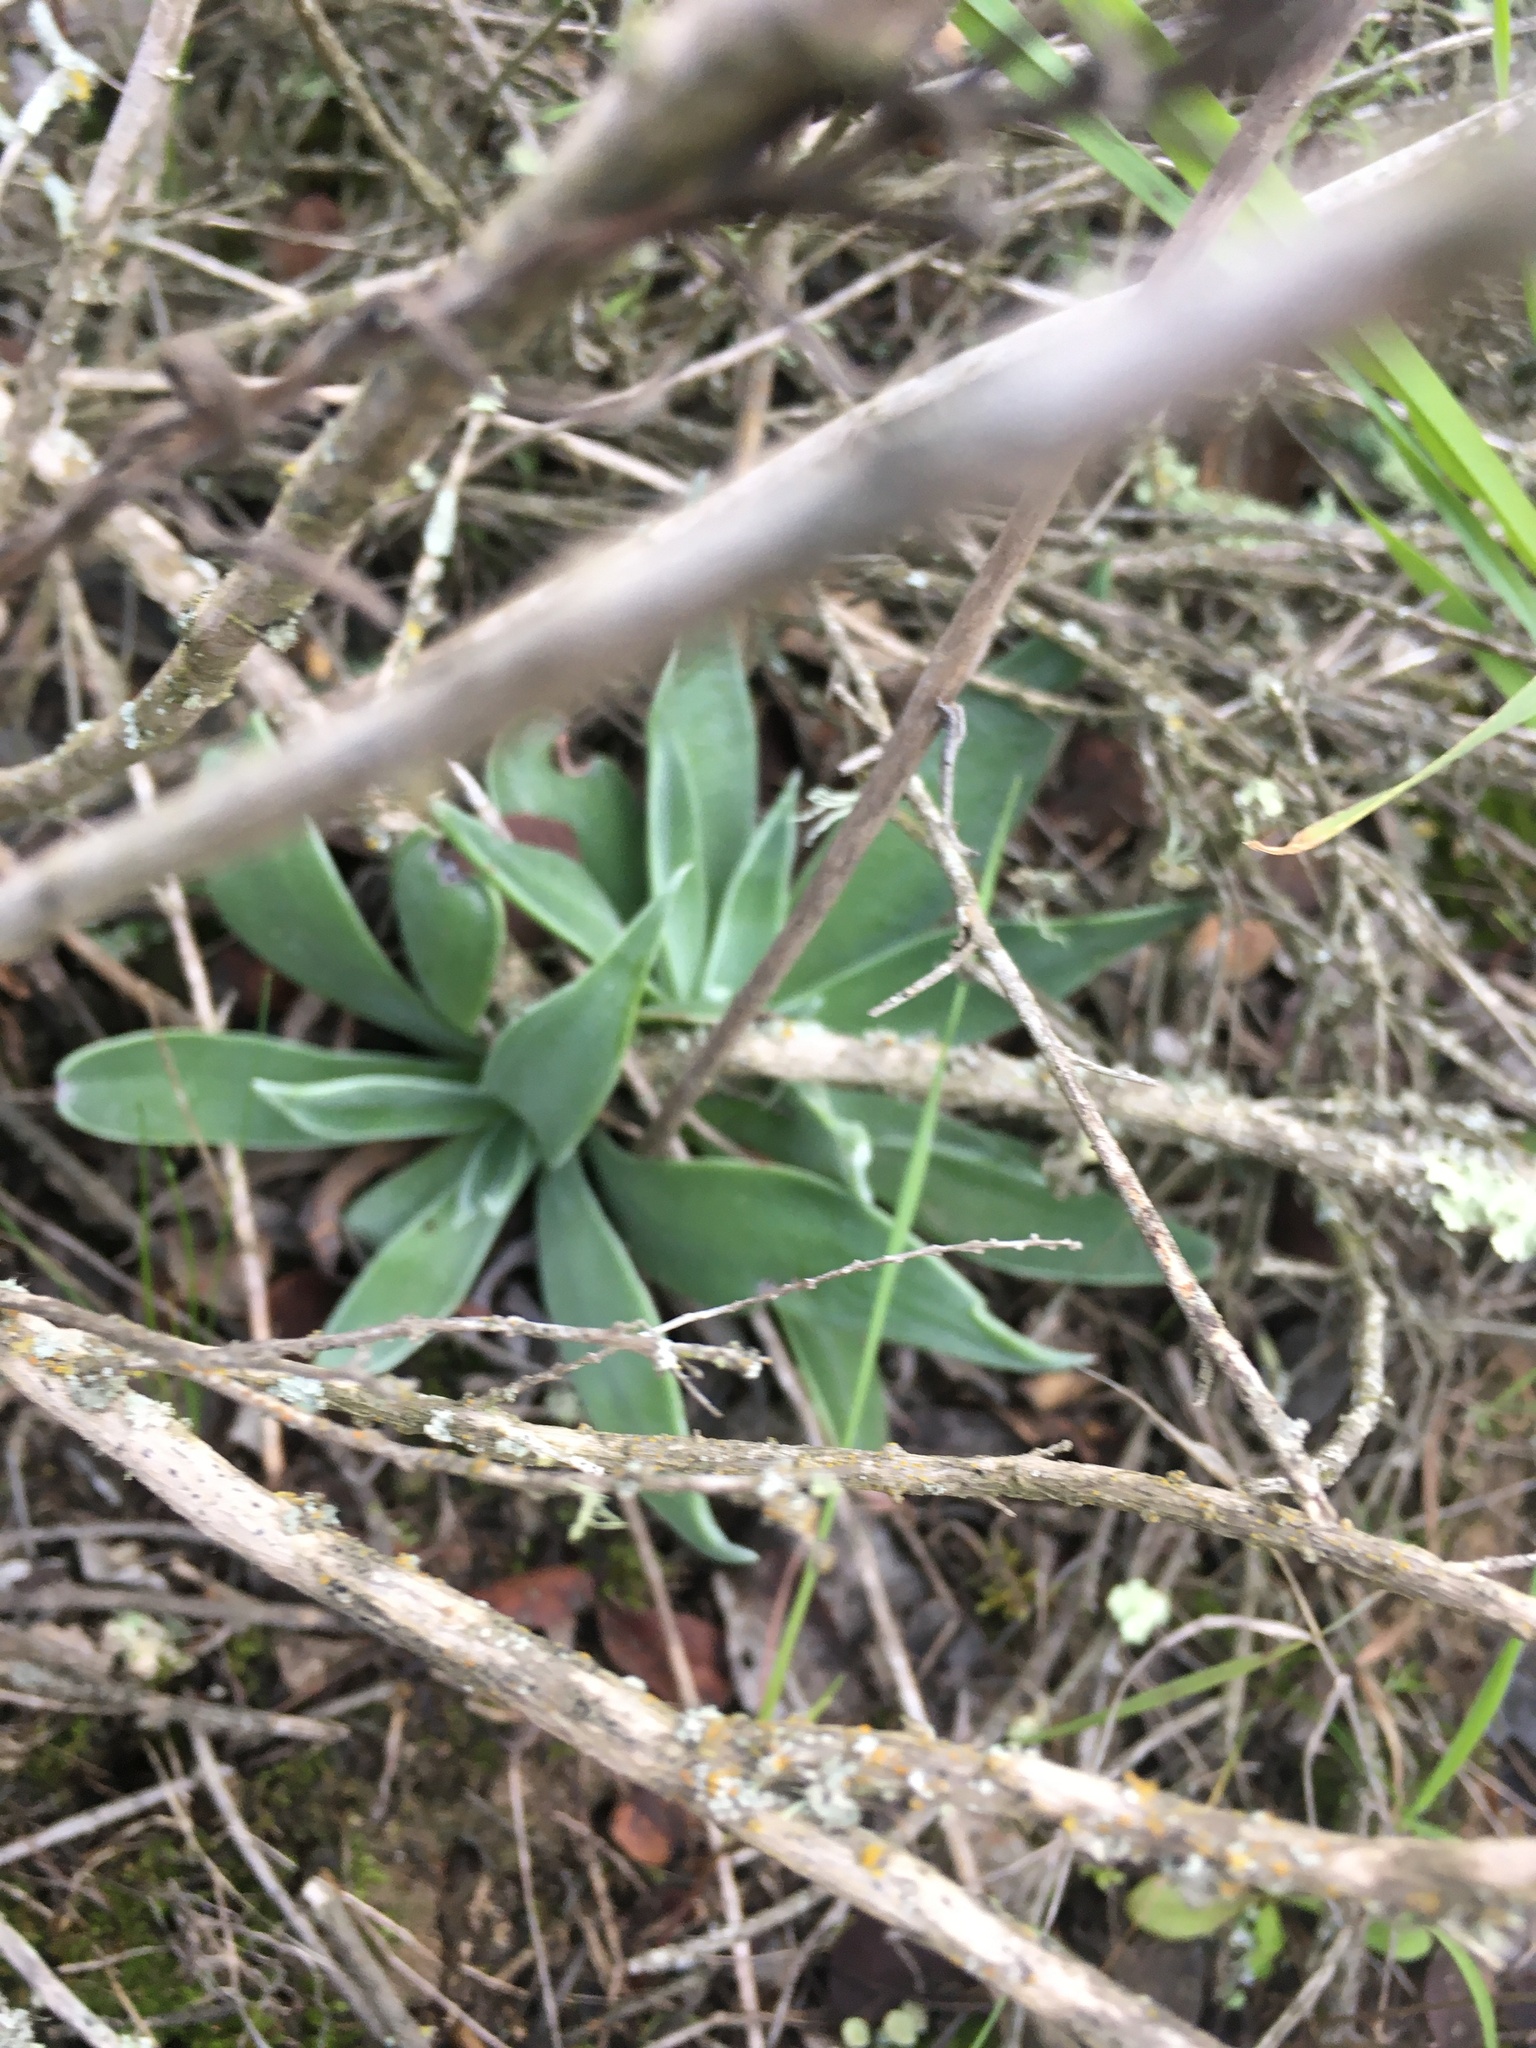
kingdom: Plantae
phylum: Tracheophyta
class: Magnoliopsida
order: Saxifragales
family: Crassulaceae
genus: Dudleya
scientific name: Dudleya lanceolata
